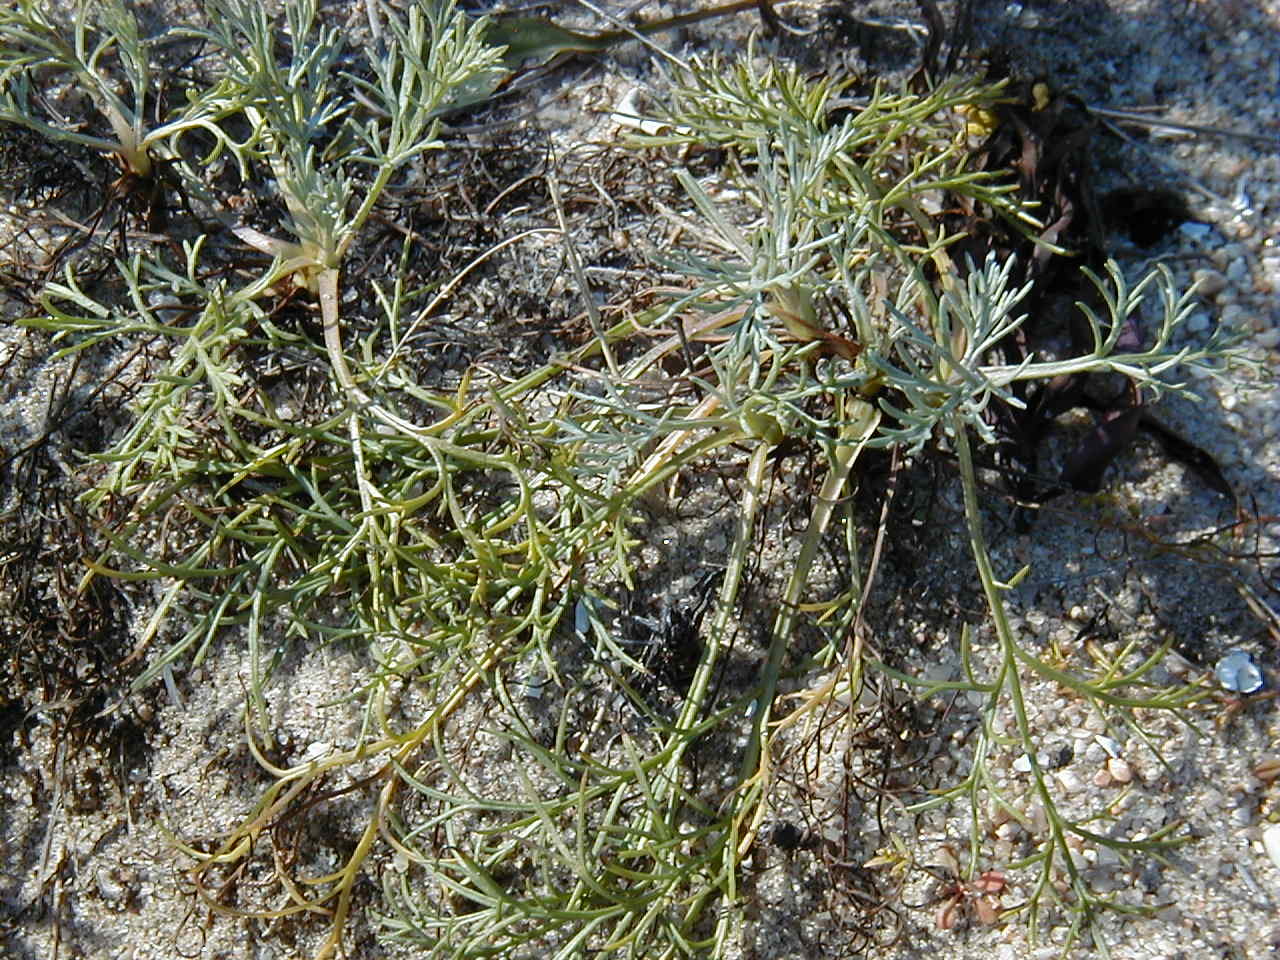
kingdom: Plantae
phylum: Tracheophyta
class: Magnoliopsida
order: Asterales
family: Asteraceae
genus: Artemisia
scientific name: Artemisia campestris
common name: Field wormwood
